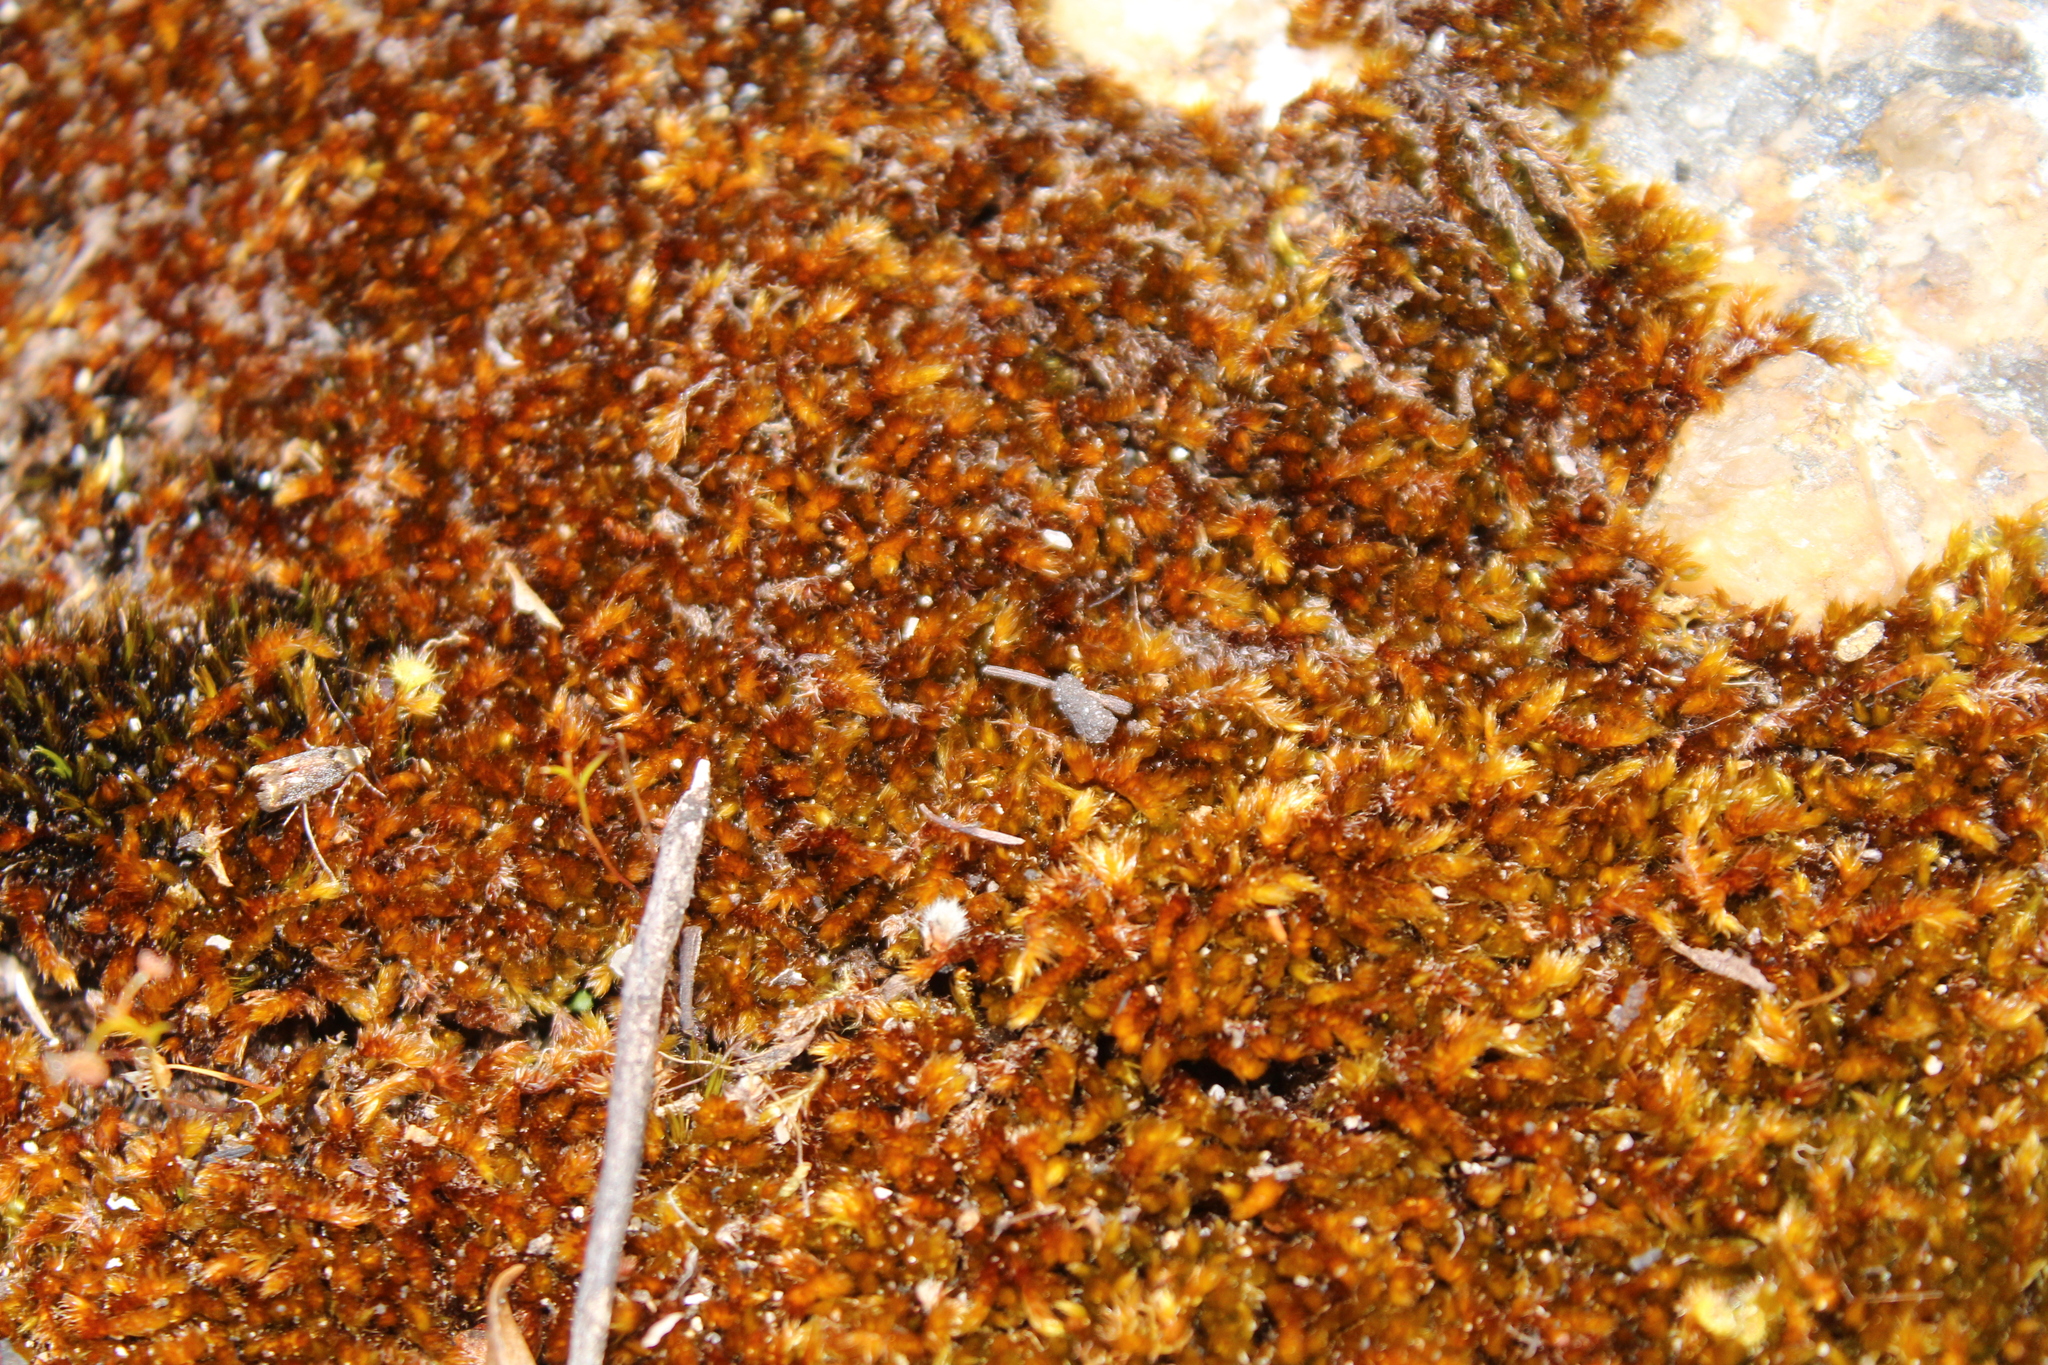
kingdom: Plantae
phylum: Bryophyta
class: Bryopsida
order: Hypnales
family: Sematophyllaceae
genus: Sematophyllum
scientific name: Sematophyllum homomallum
